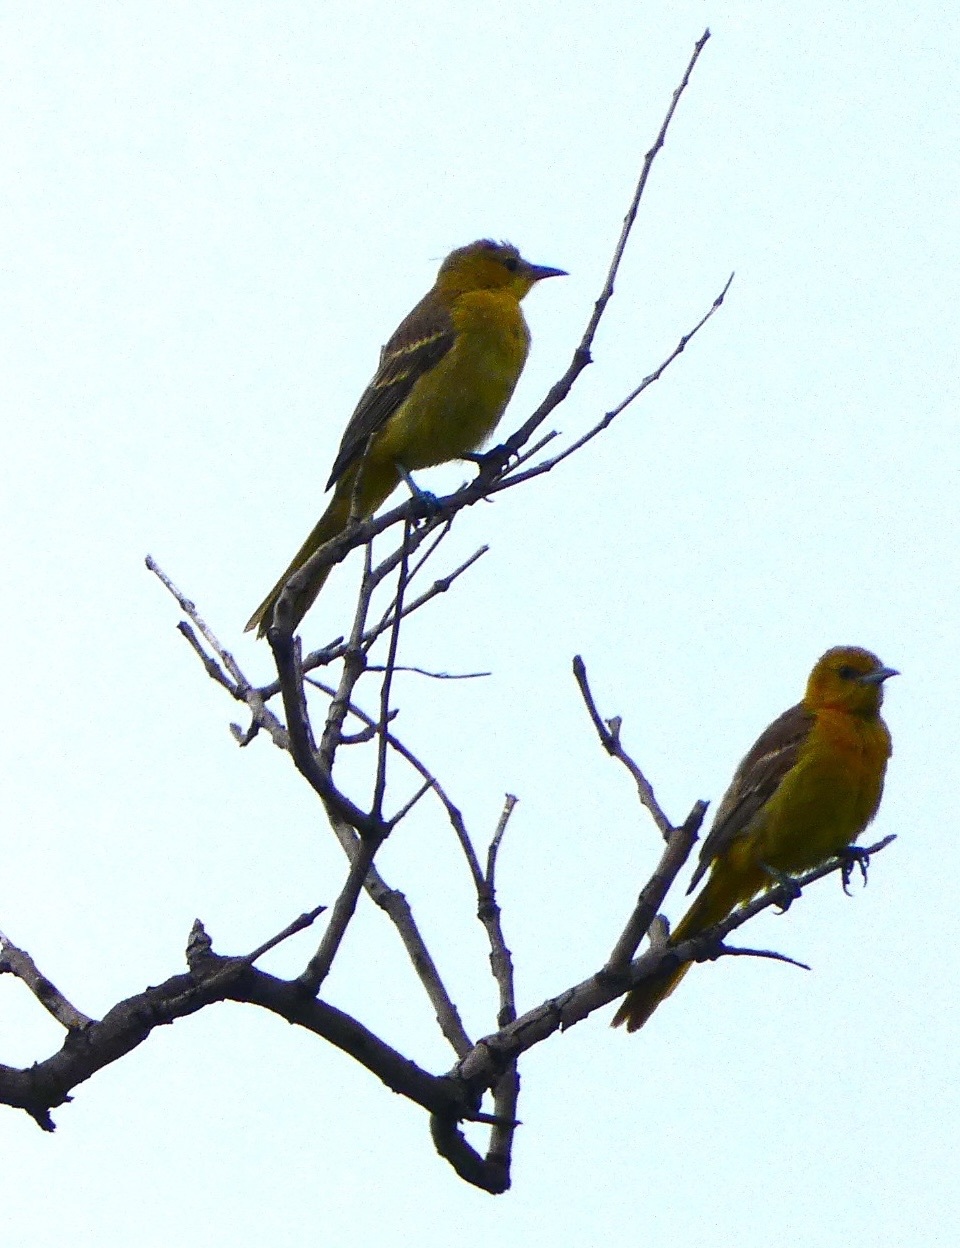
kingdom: Animalia
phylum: Chordata
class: Aves
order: Passeriformes
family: Icteridae
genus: Icterus
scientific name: Icterus cucullatus
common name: Hooded oriole
